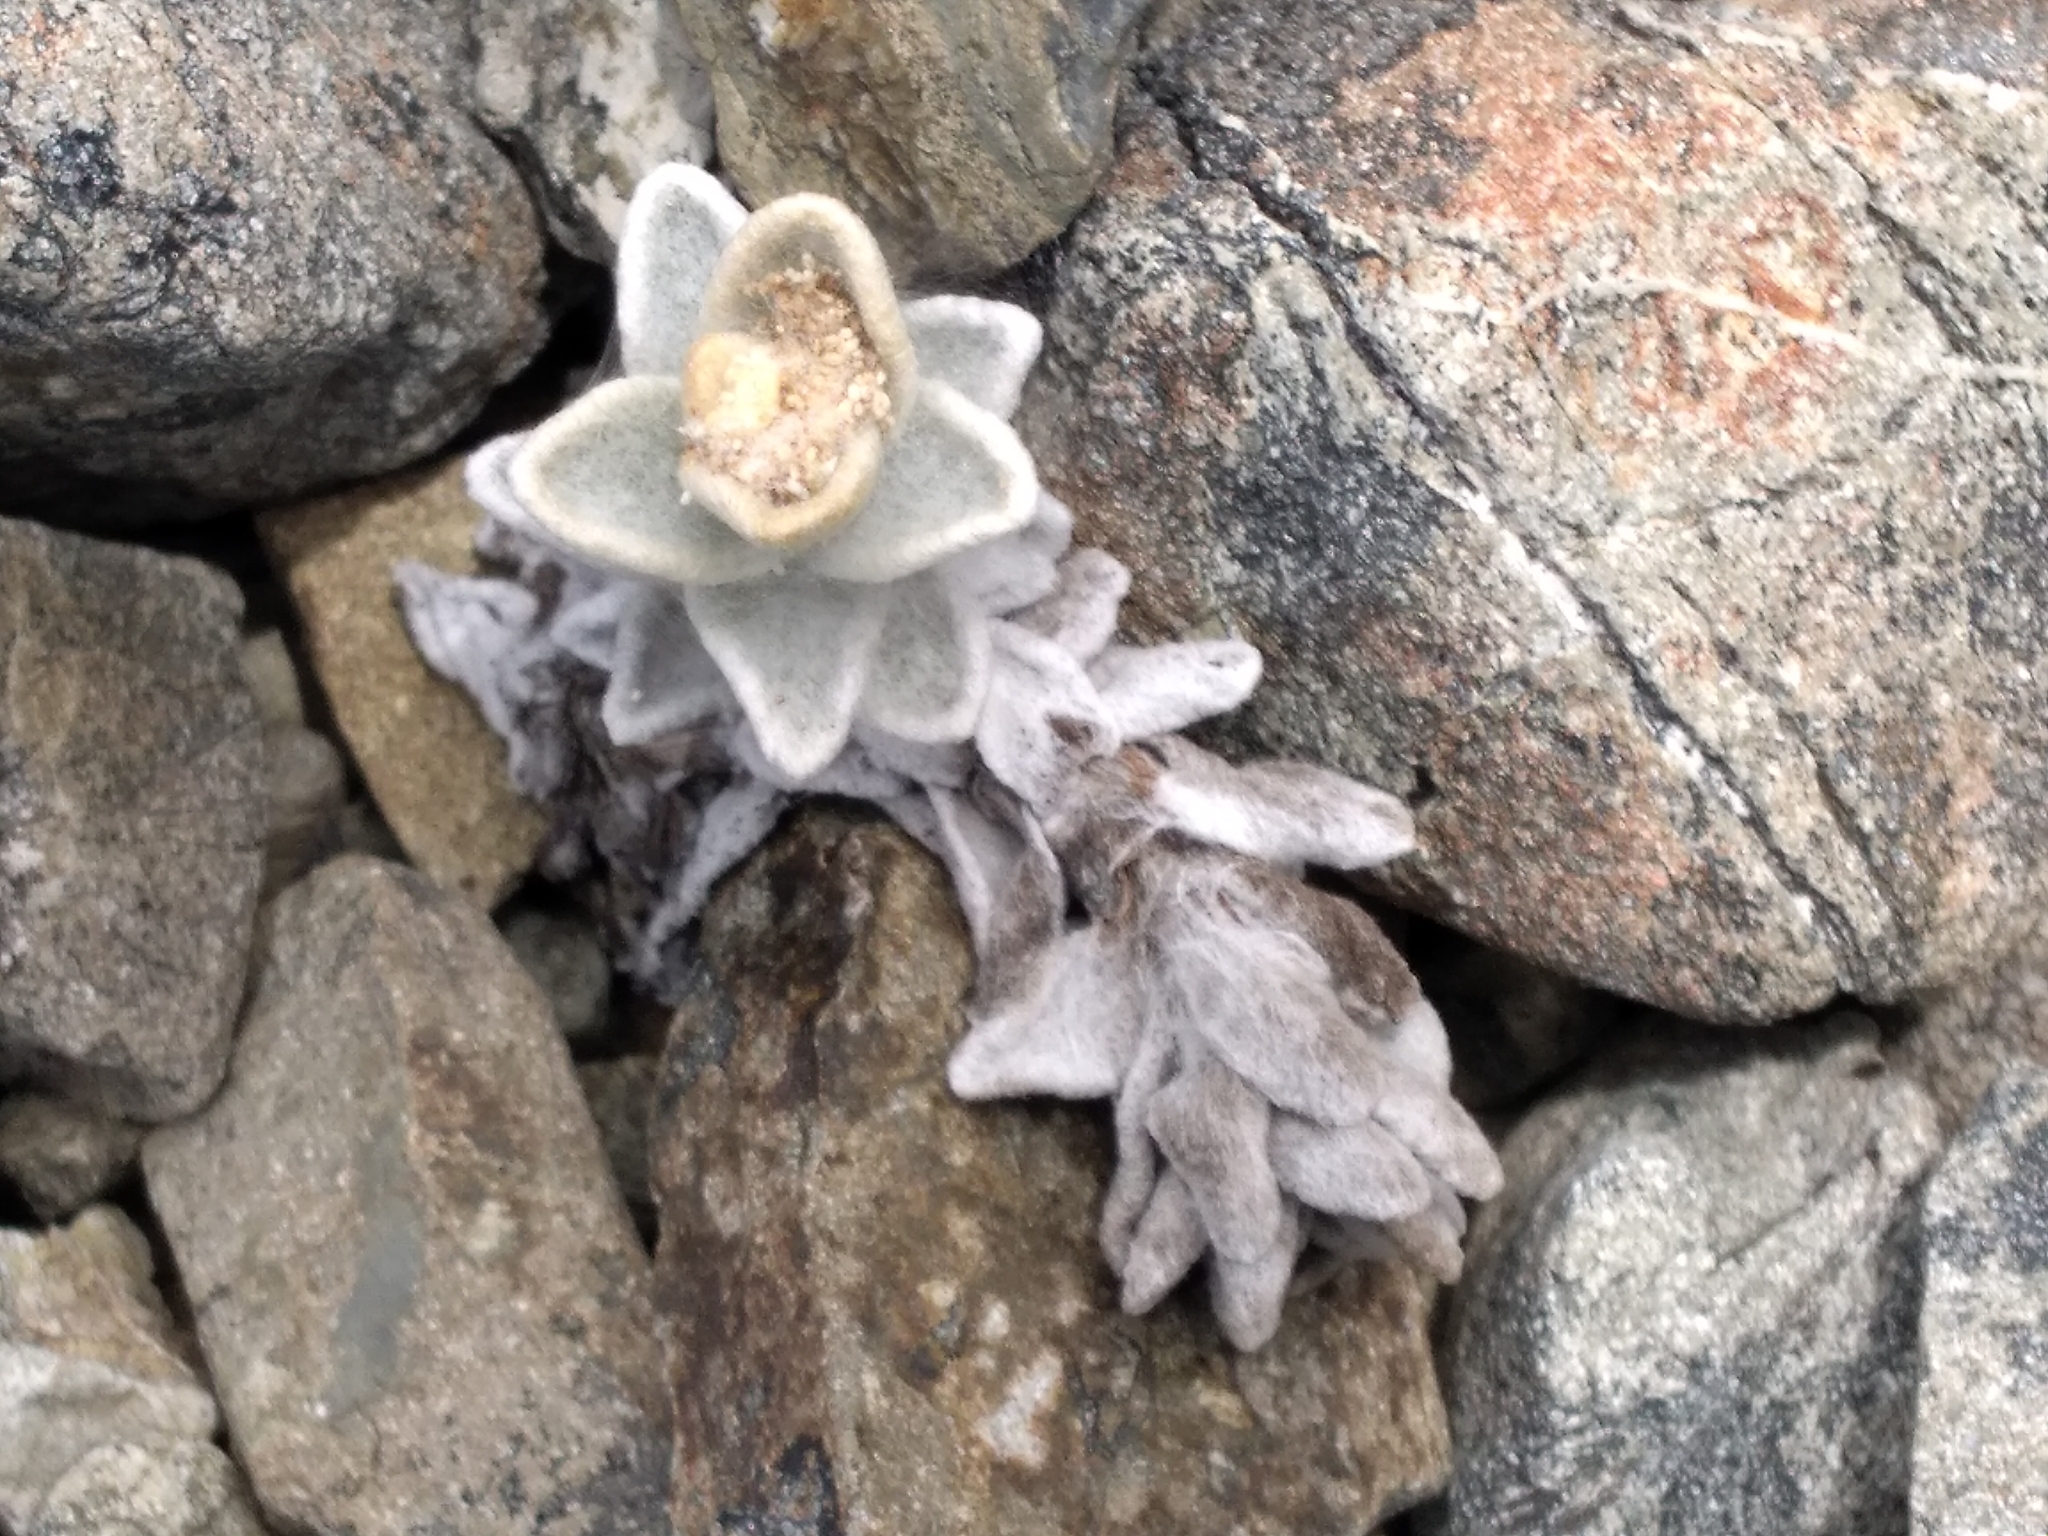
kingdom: Plantae
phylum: Tracheophyta
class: Magnoliopsida
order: Asterales
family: Asteraceae
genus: Haastia
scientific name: Haastia sinclairii
